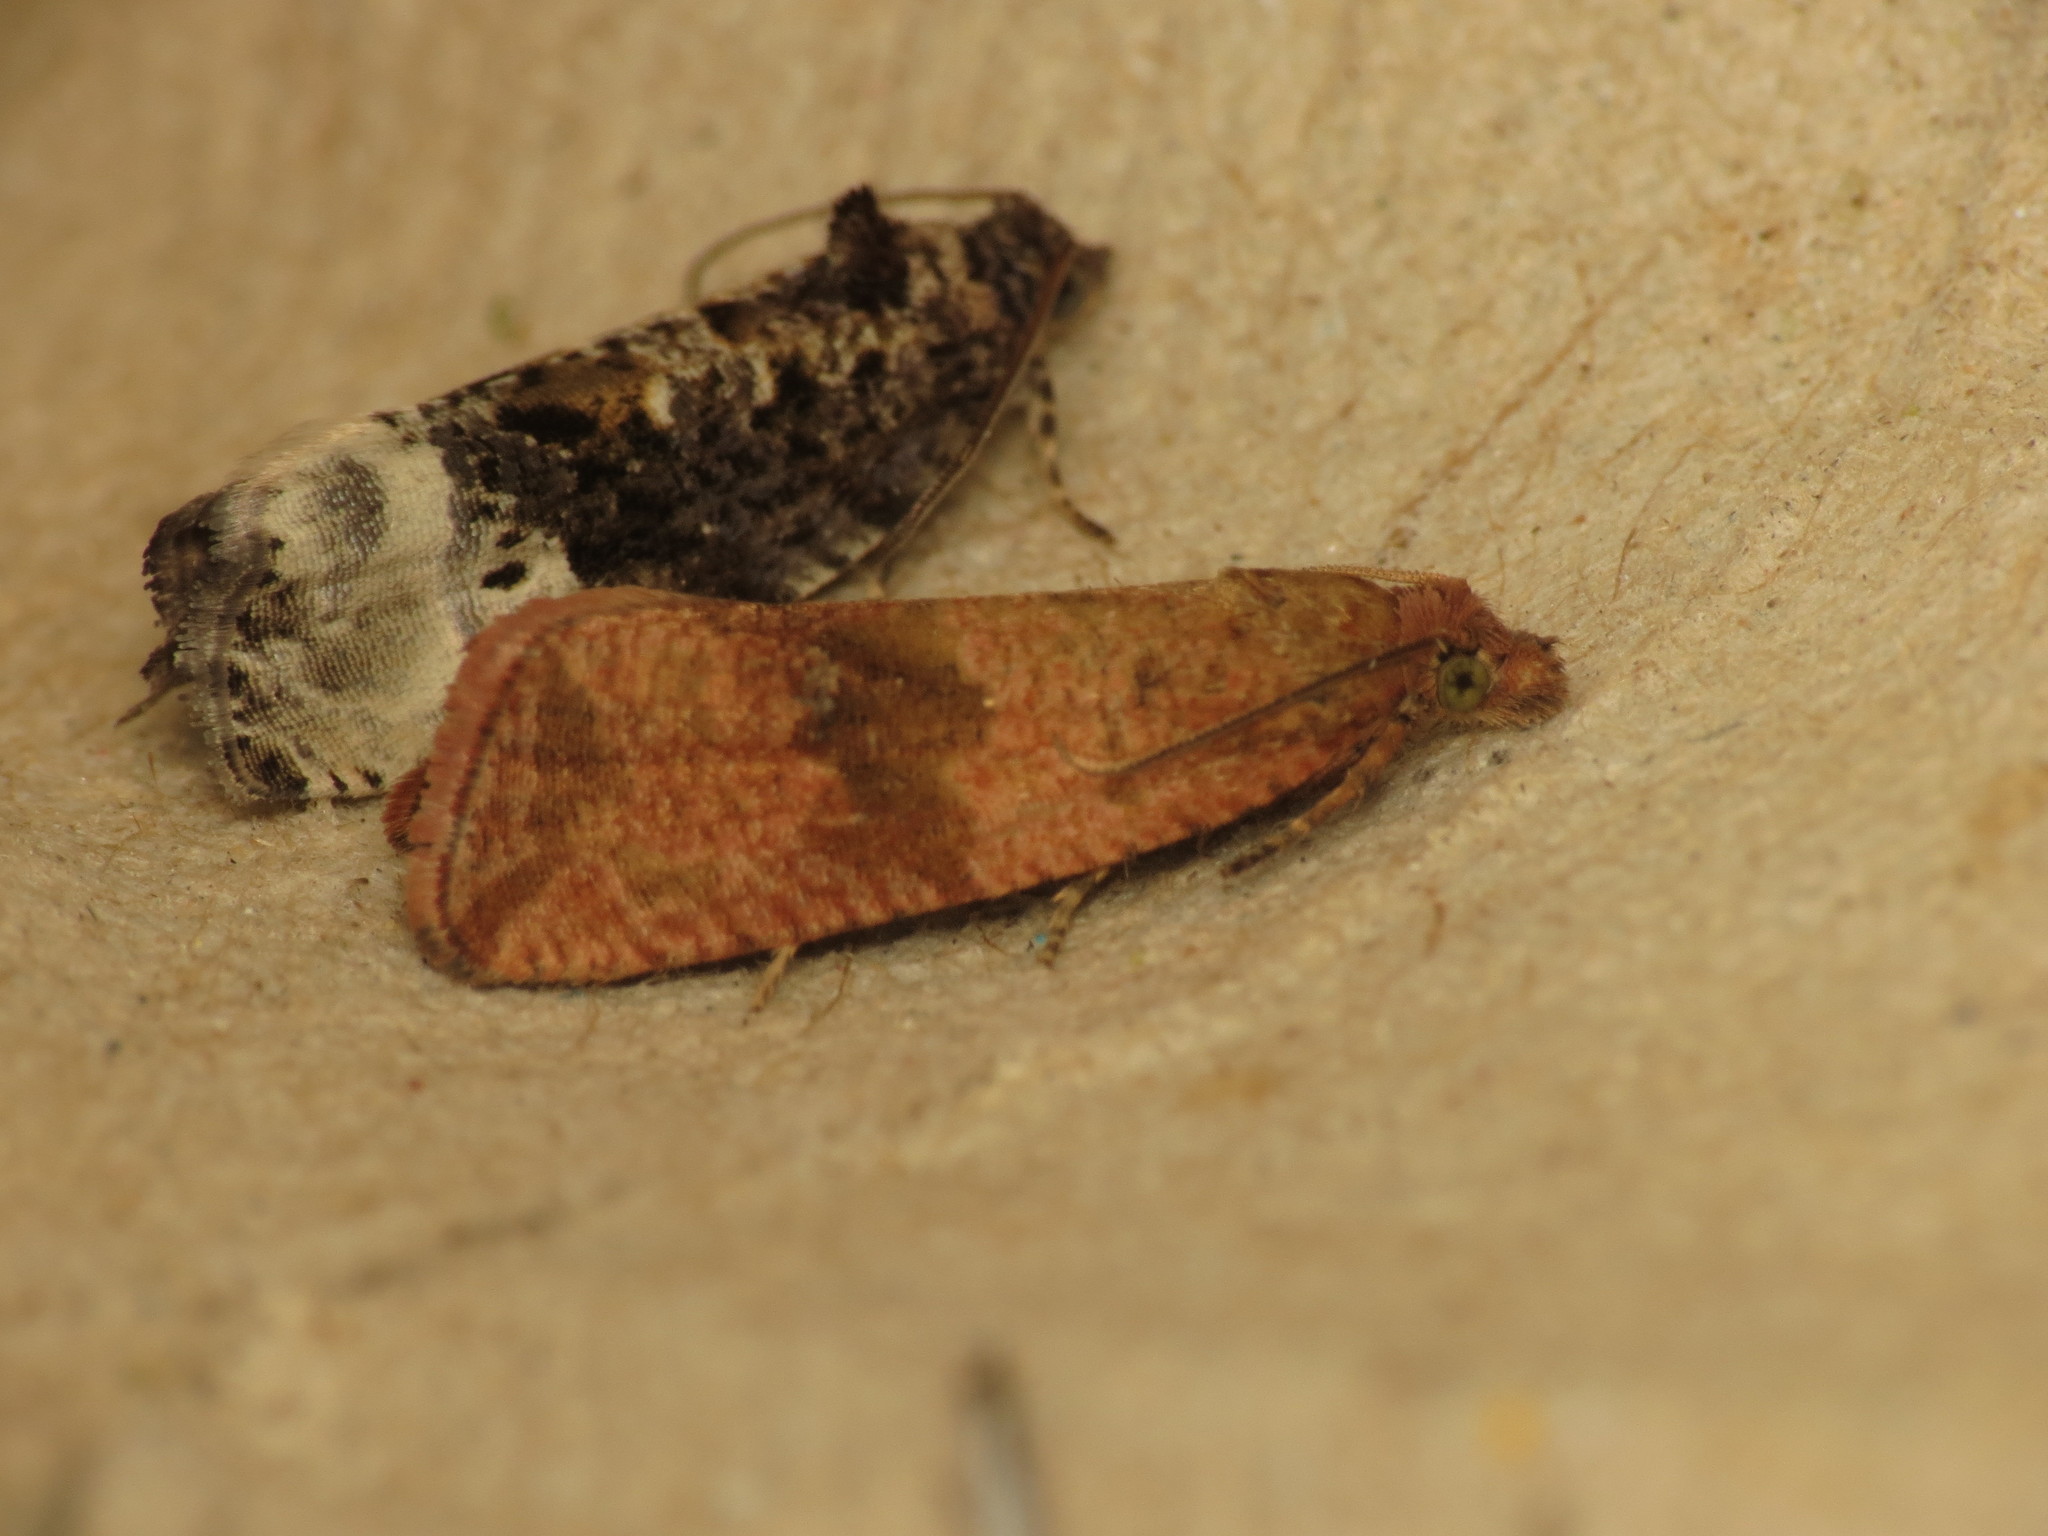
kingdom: Animalia
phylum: Arthropoda
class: Insecta
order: Lepidoptera
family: Tortricidae
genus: Celypha
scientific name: Celypha striana
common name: Barred marble
